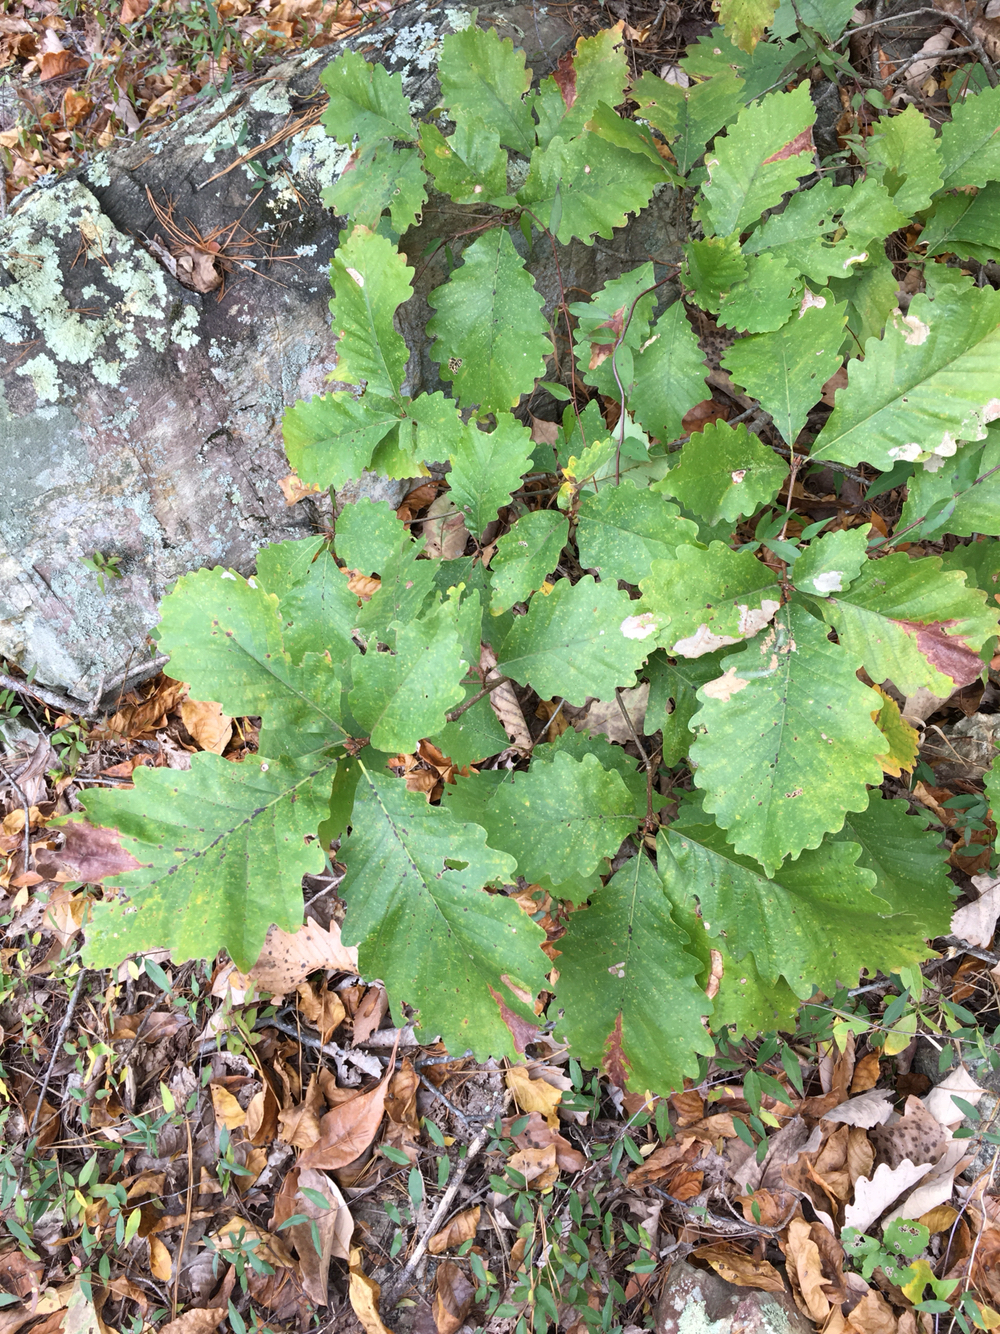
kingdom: Plantae
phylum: Tracheophyta
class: Magnoliopsida
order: Fagales
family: Fagaceae
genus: Quercus
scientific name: Quercus montana
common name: Chestnut oak
